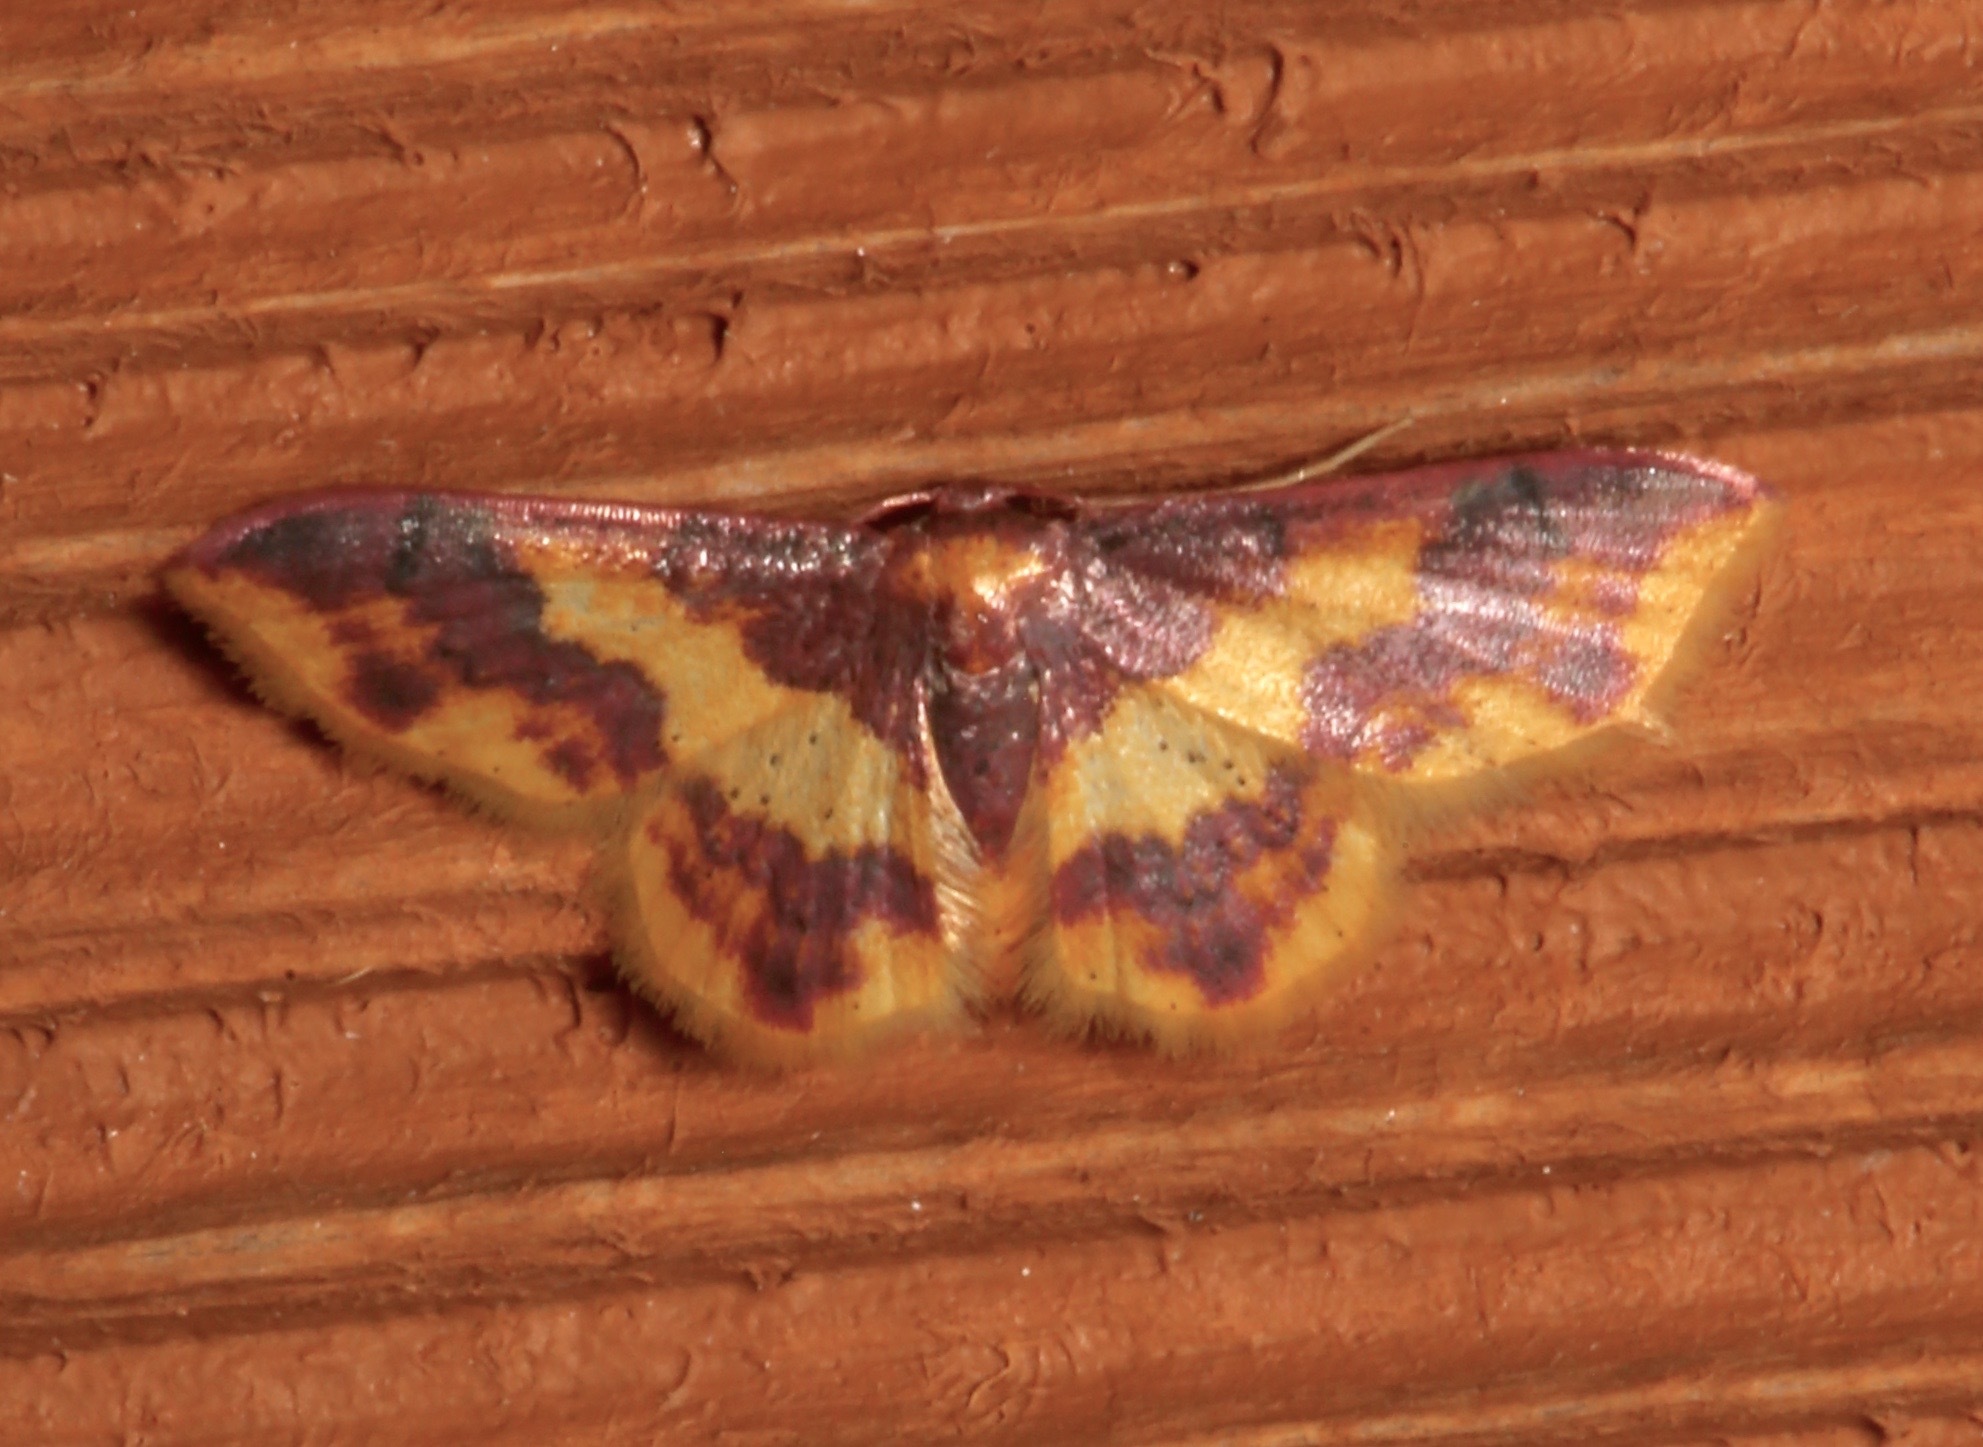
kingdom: Animalia
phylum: Arthropoda
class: Insecta
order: Lepidoptera
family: Geometridae
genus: Lophosis
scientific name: Lophosis labeculata
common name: Stained lophosis moth
